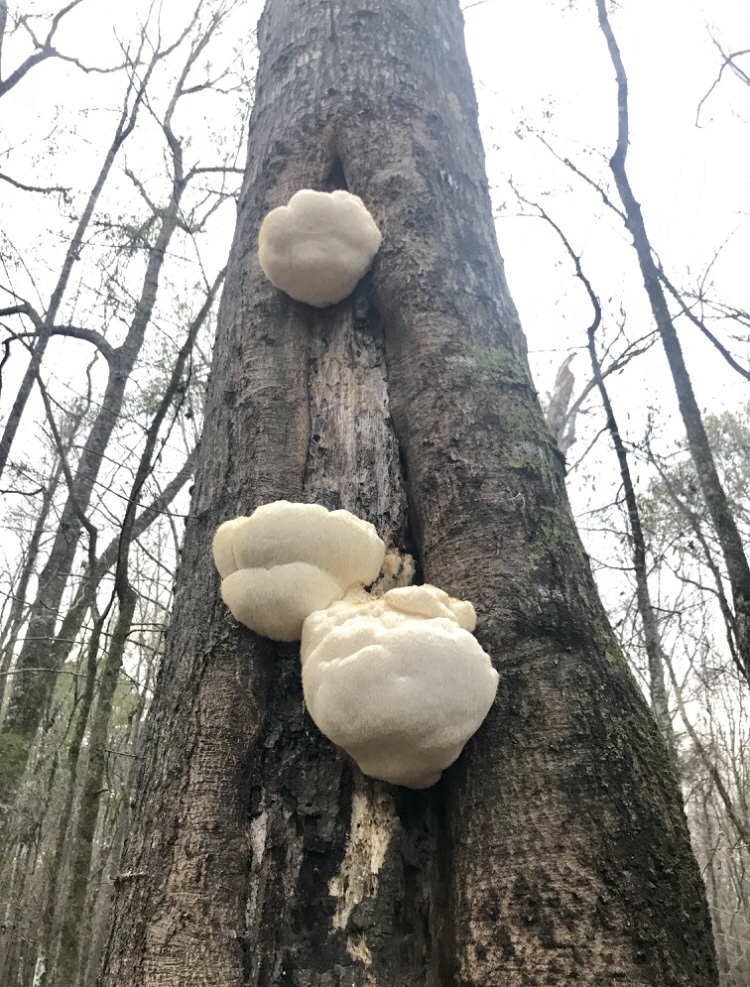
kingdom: Fungi
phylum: Basidiomycota
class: Agaricomycetes
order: Russulales
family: Hericiaceae
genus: Hericium
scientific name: Hericium erinaceus
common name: Bearded tooth
